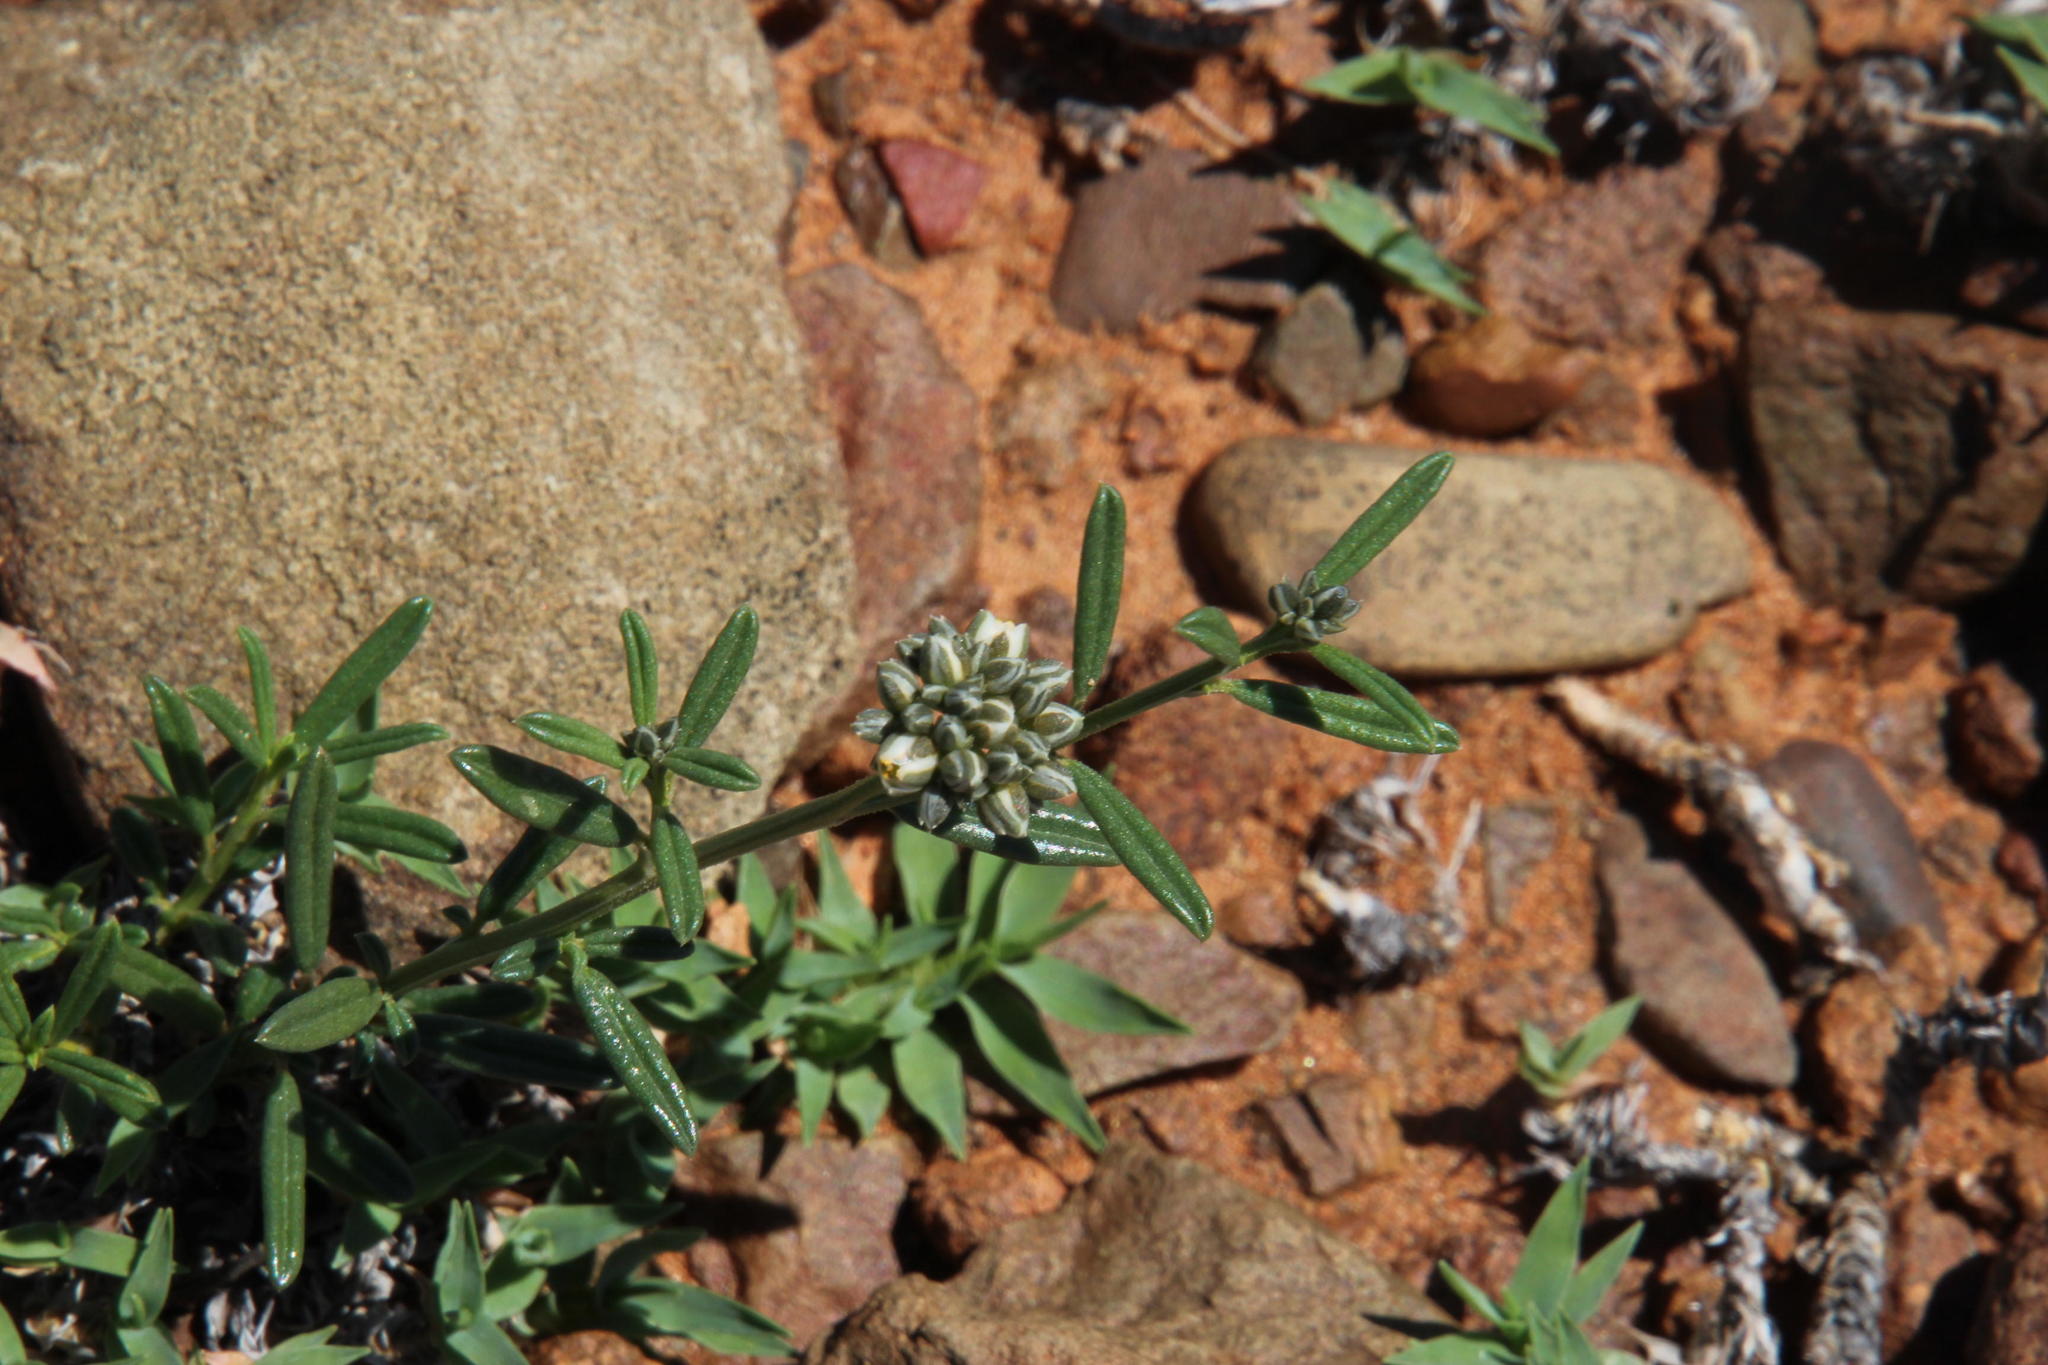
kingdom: Plantae
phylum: Tracheophyta
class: Magnoliopsida
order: Caryophyllales
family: Limeaceae
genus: Limeum
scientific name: Limeum aethiopicum
